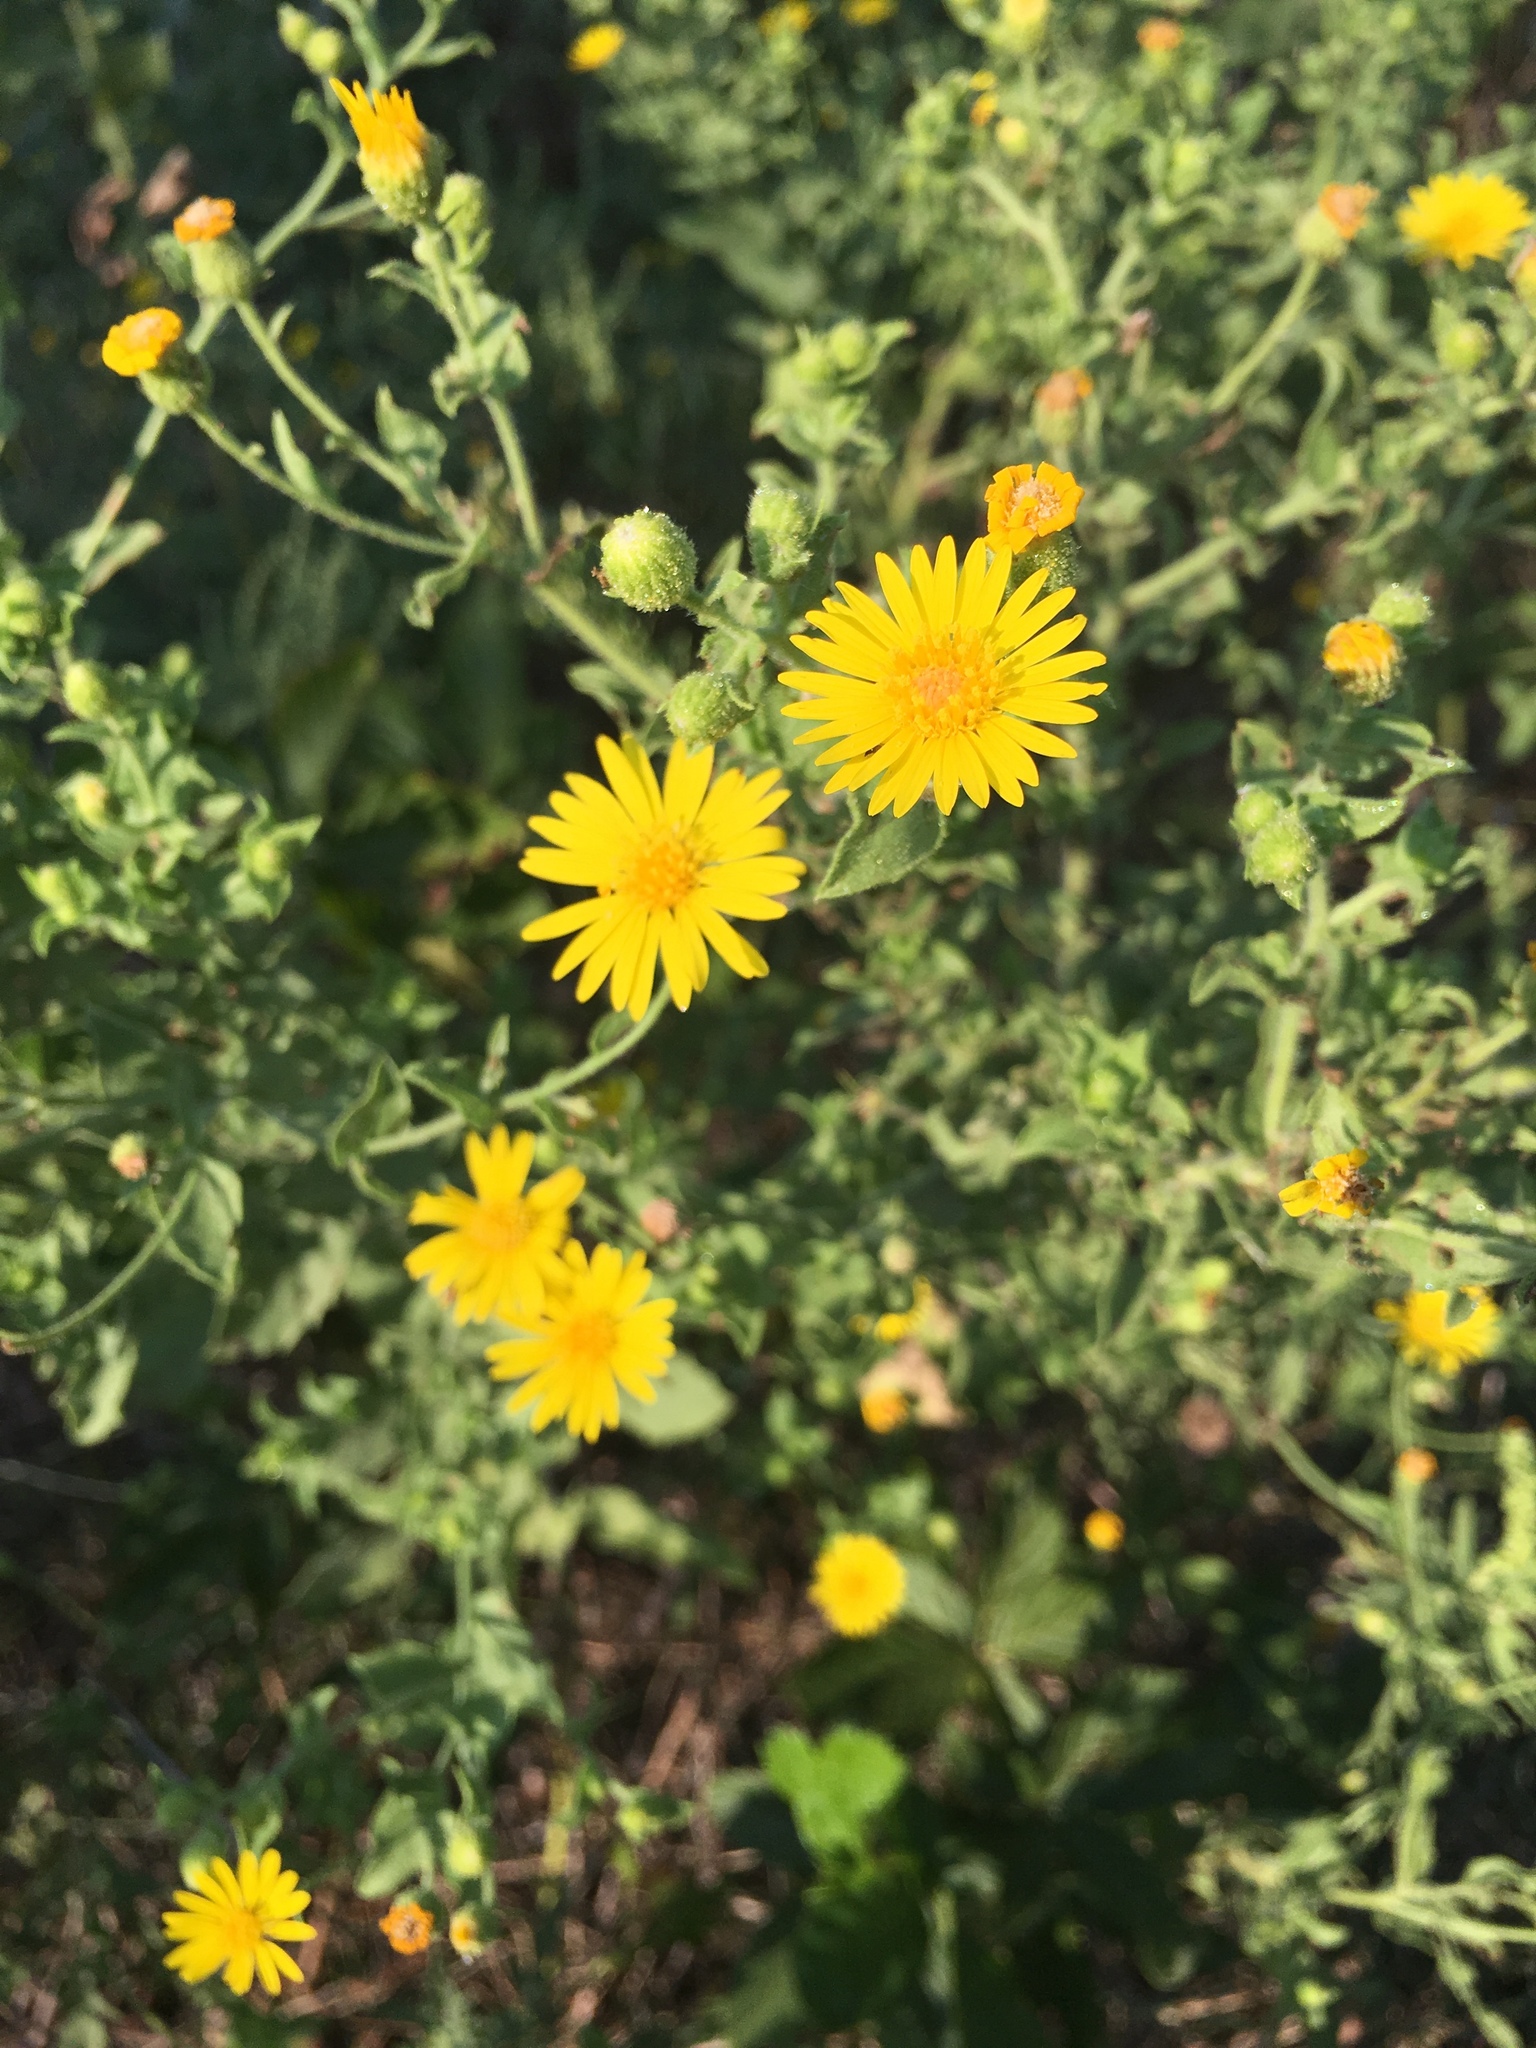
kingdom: Plantae
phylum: Tracheophyta
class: Magnoliopsida
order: Asterales
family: Asteraceae
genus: Heterotheca
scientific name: Heterotheca subaxillaris
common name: Camphorweed
